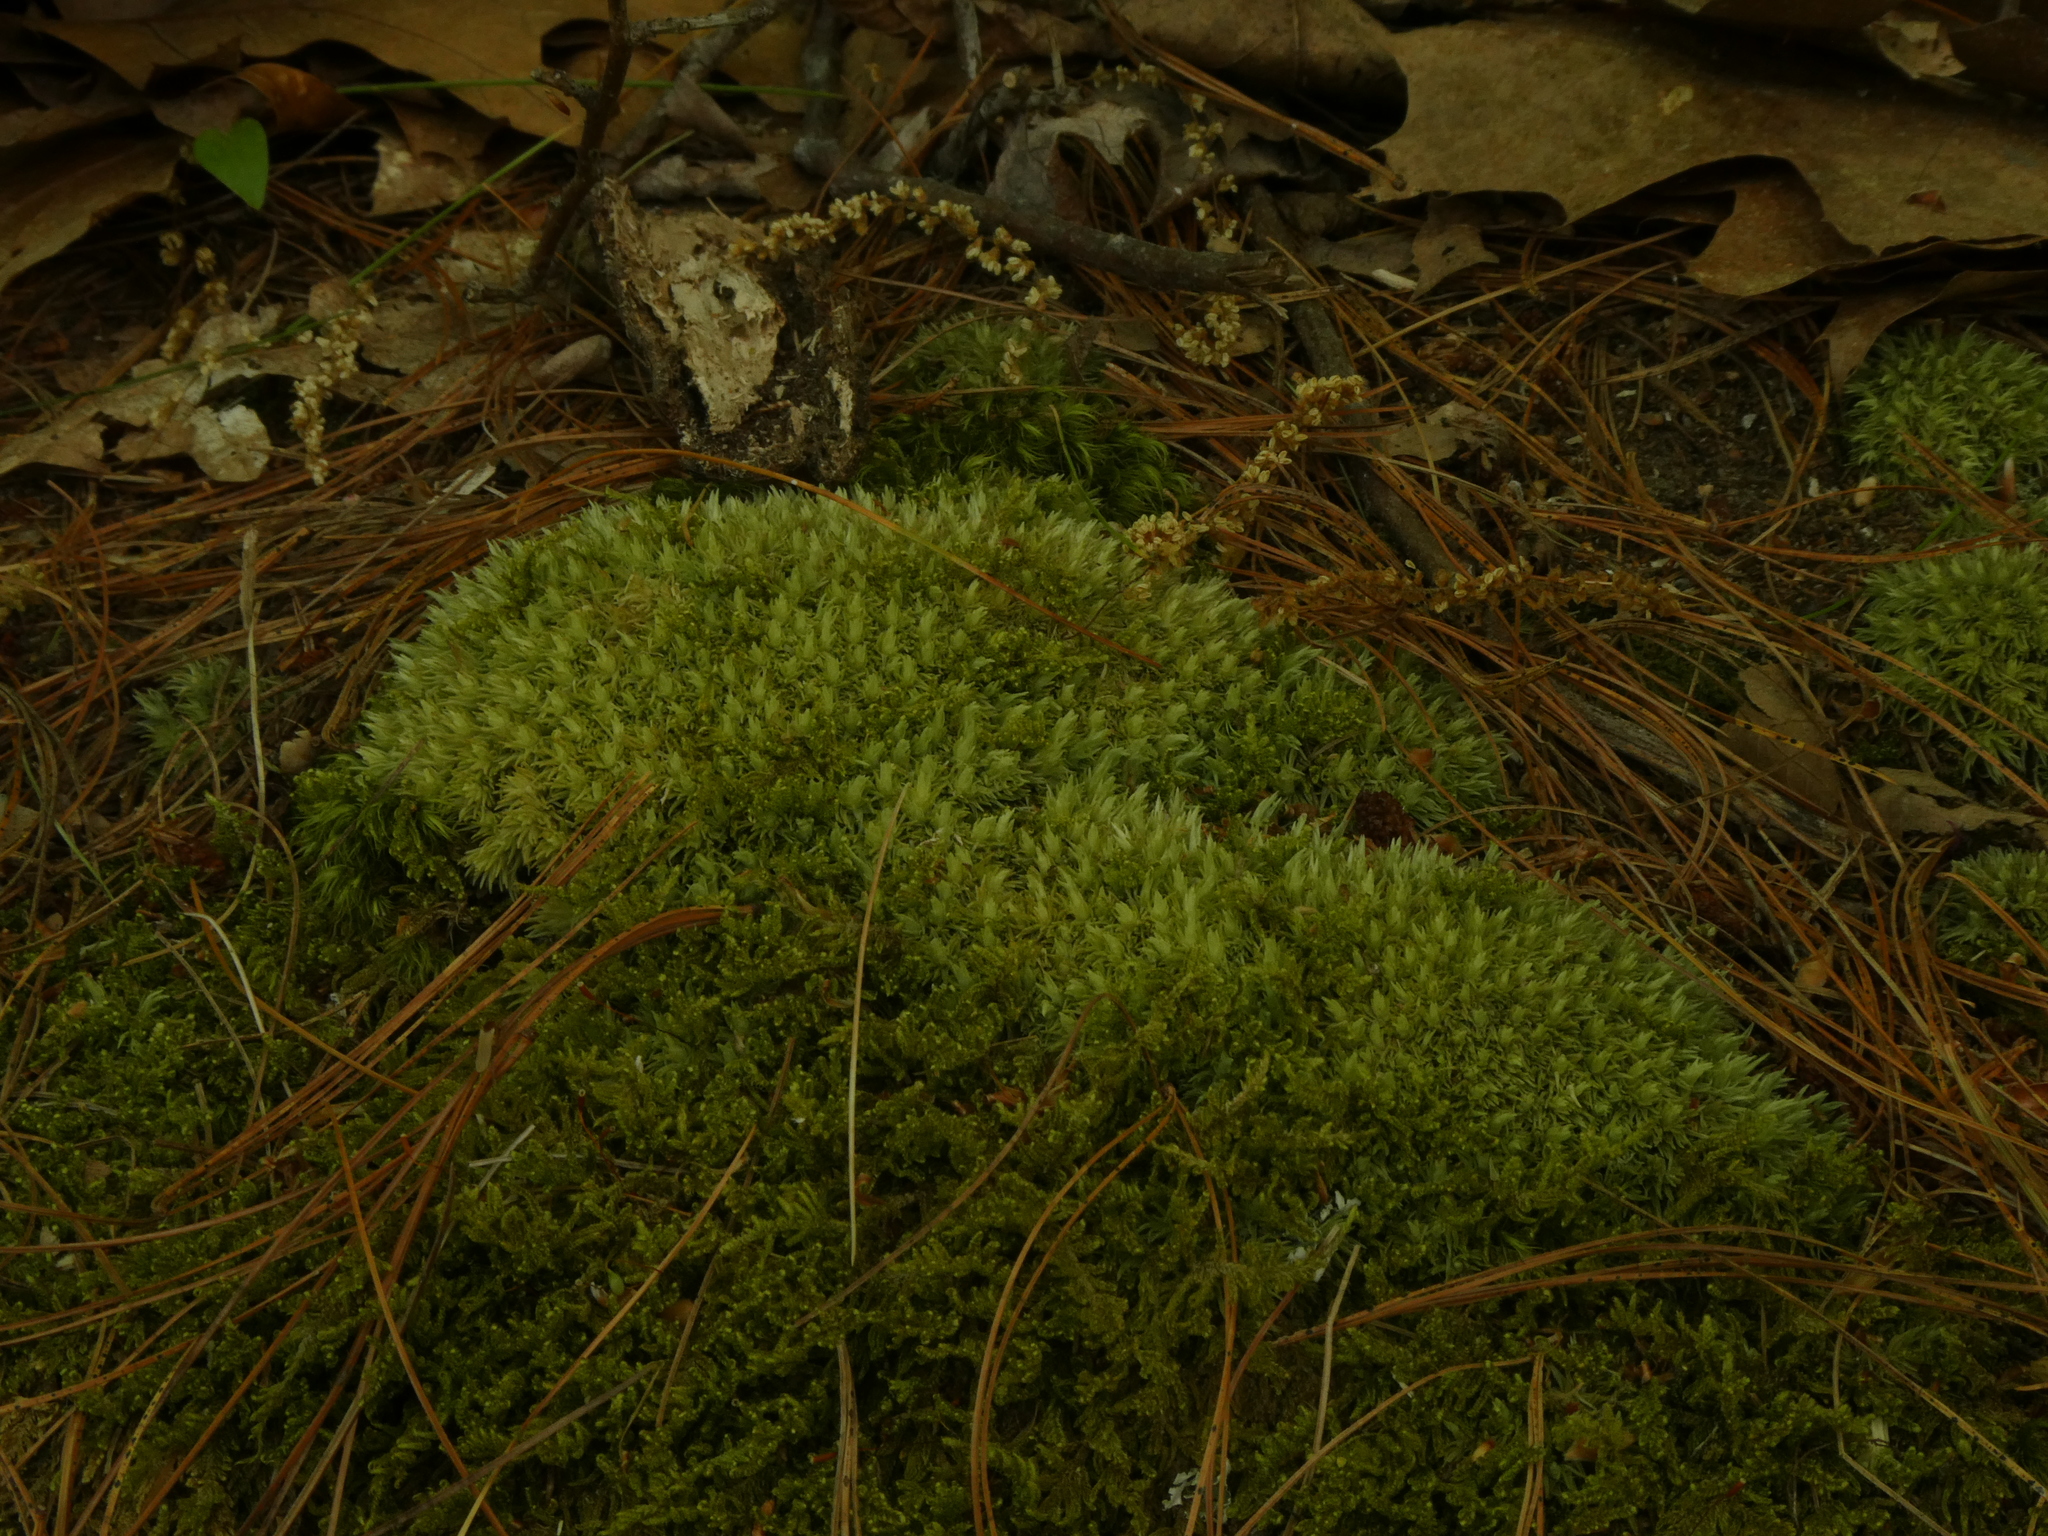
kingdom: Plantae
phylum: Bryophyta
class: Bryopsida
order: Dicranales
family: Leucobryaceae
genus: Leucobryum
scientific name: Leucobryum glaucum
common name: Large white-moss
